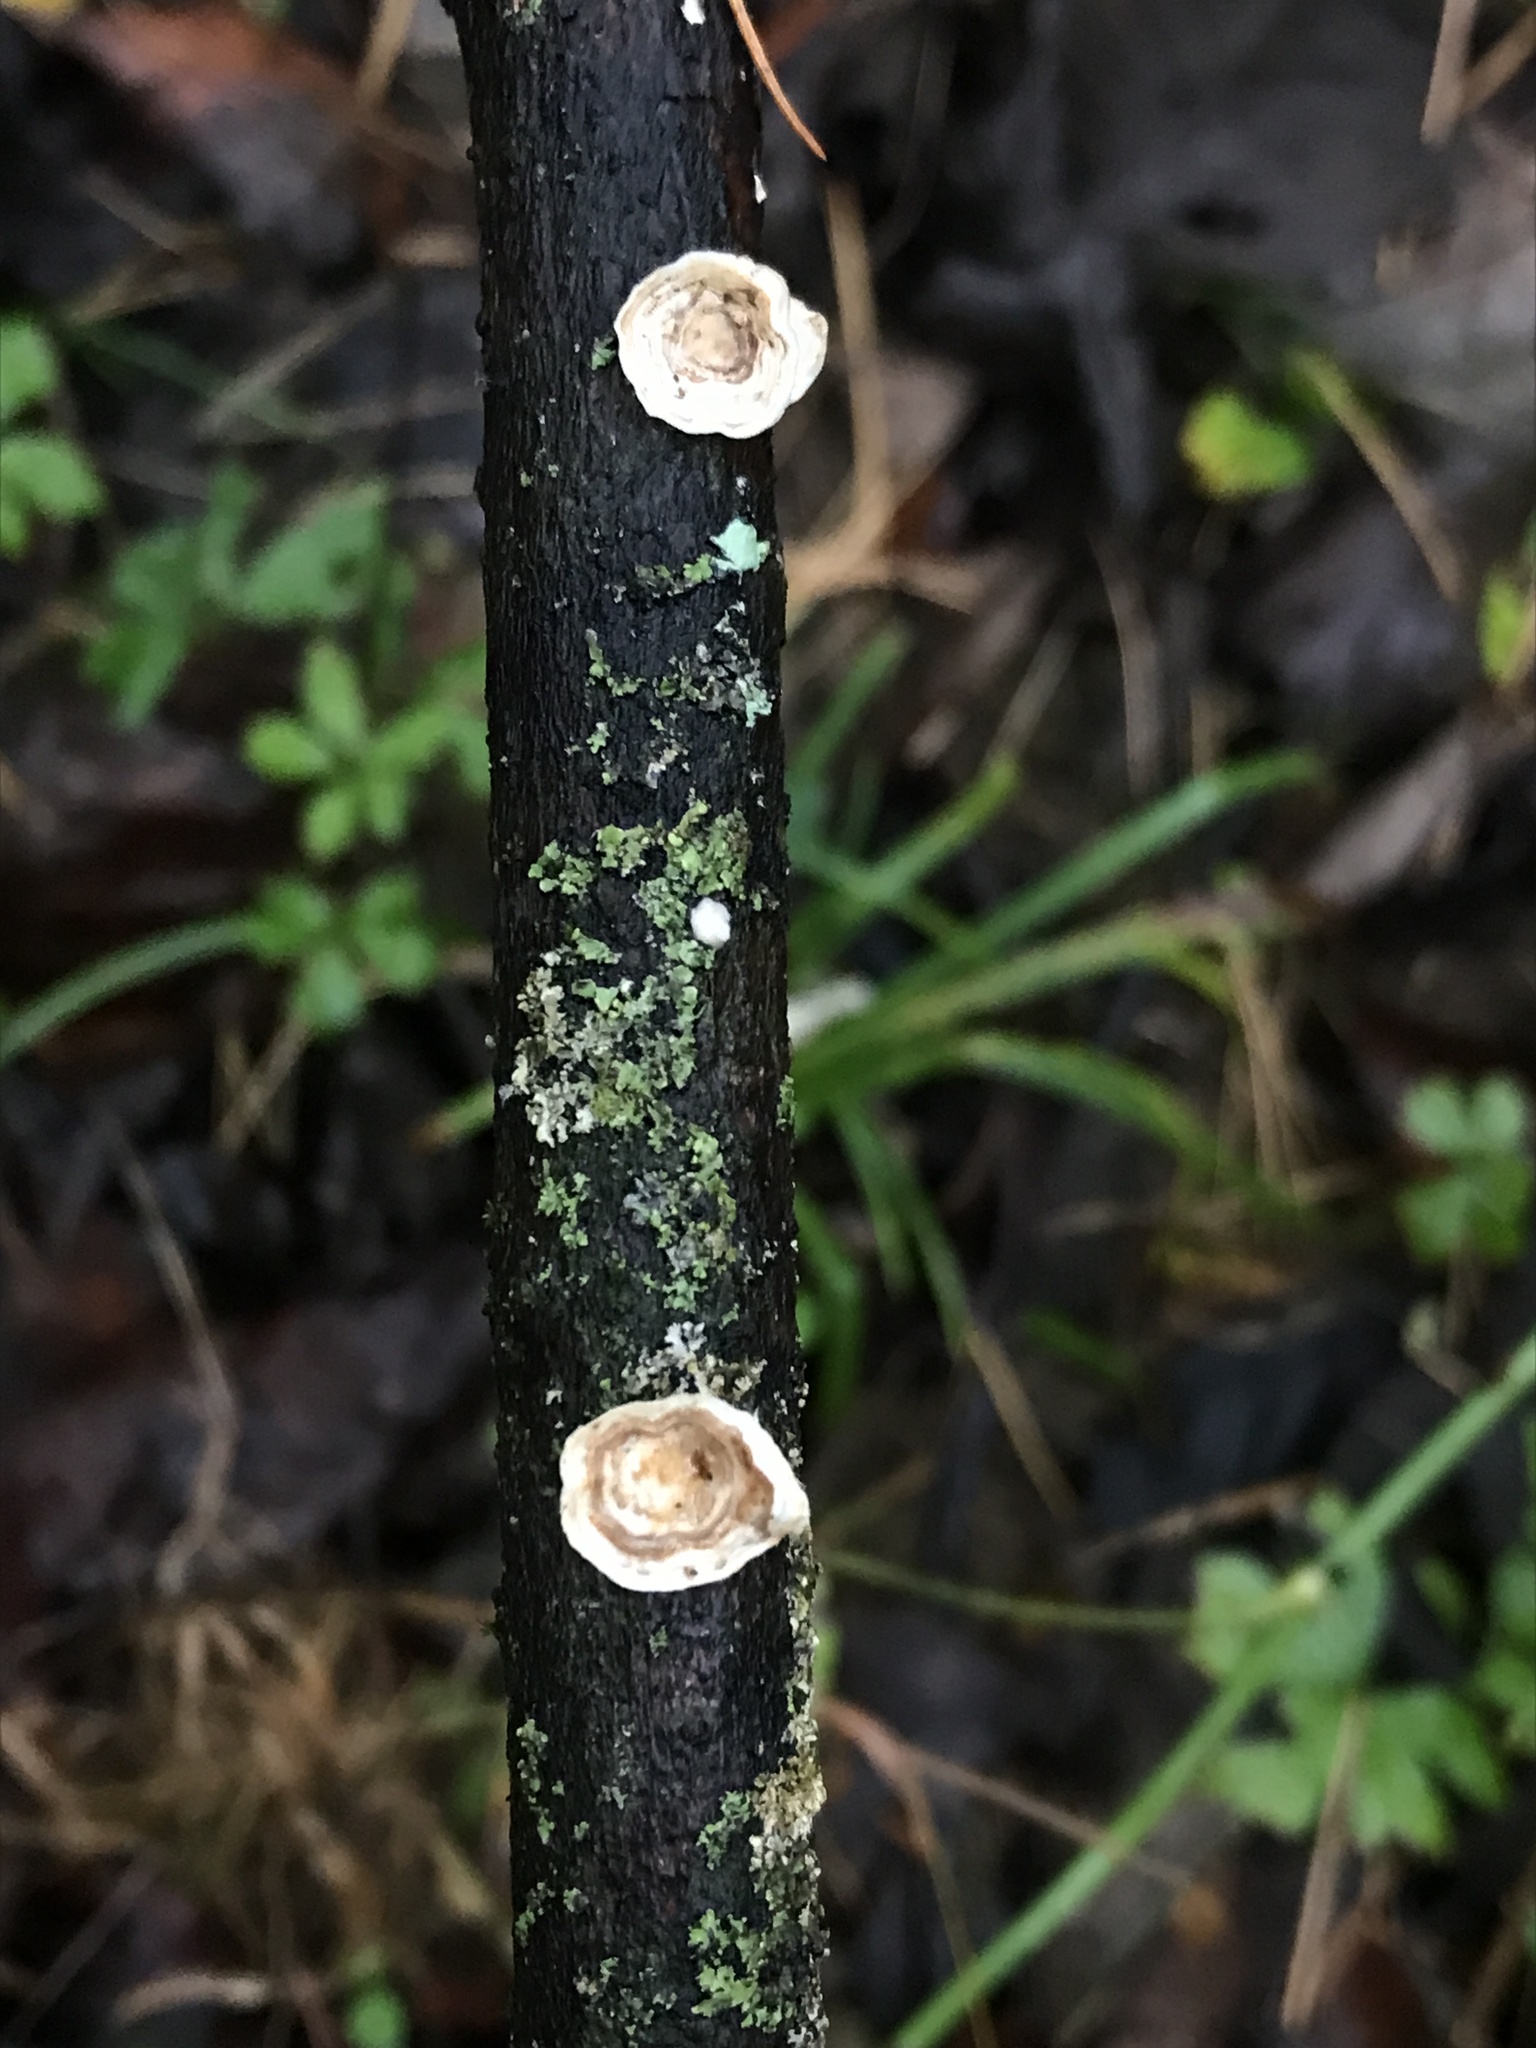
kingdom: Fungi
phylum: Basidiomycota
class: Agaricomycetes
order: Polyporales
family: Polyporaceae
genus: Poronidulus
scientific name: Poronidulus conchifer
